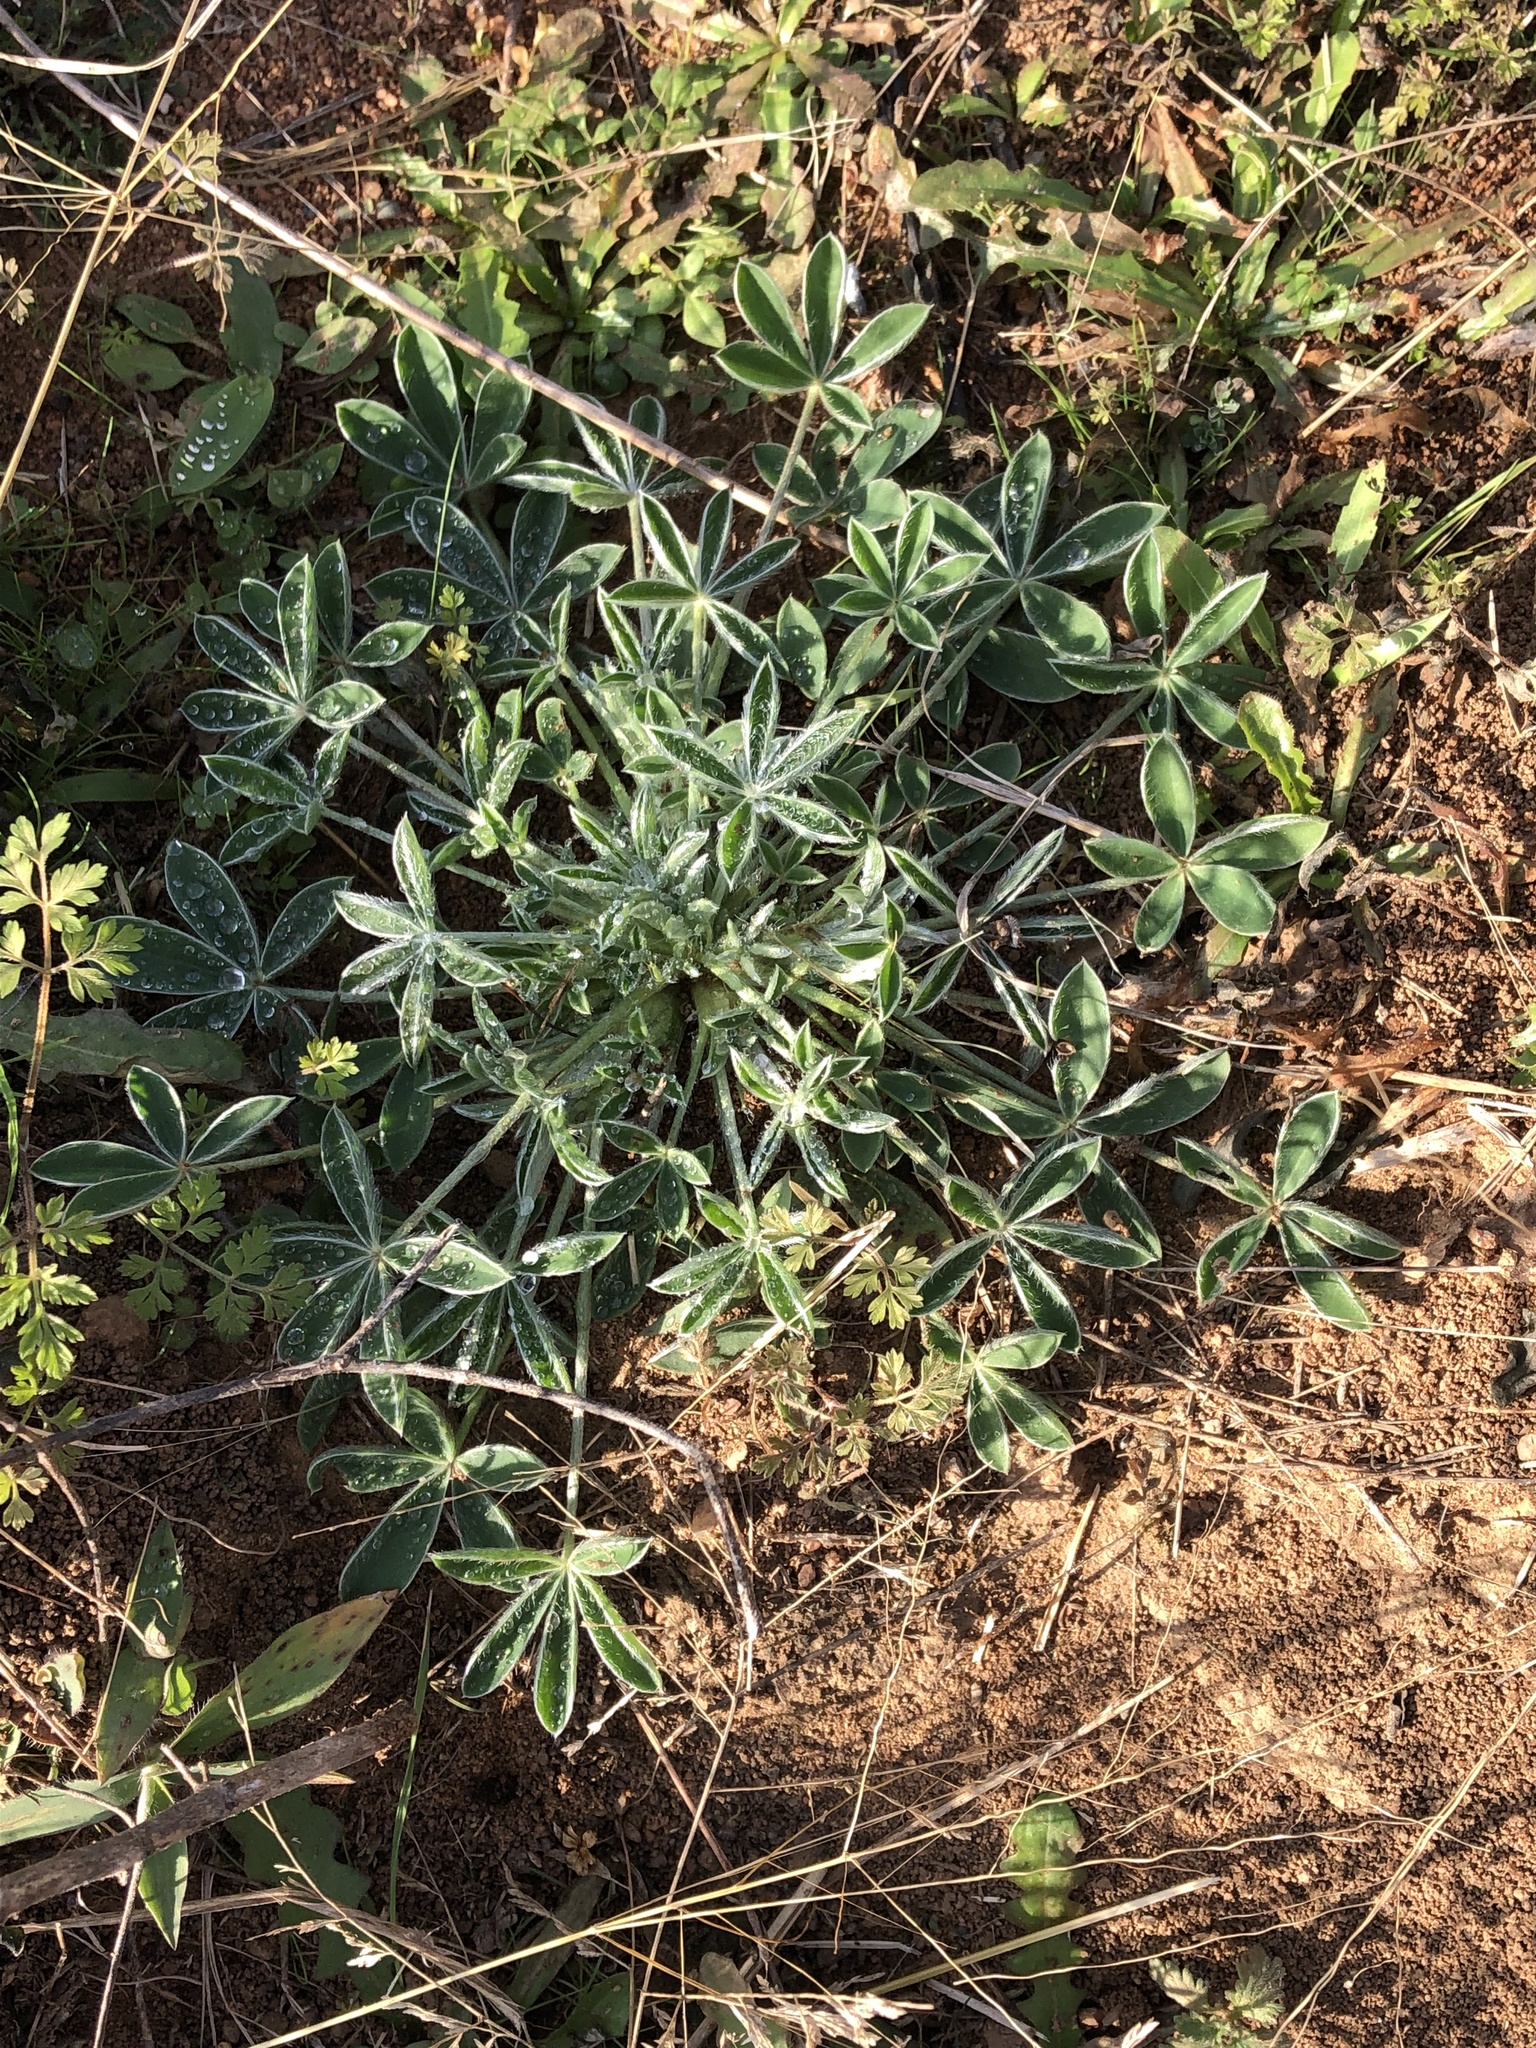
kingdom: Plantae
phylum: Tracheophyta
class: Magnoliopsida
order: Fabales
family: Fabaceae
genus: Lupinus
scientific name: Lupinus texensis
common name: Texas bluebonnet
